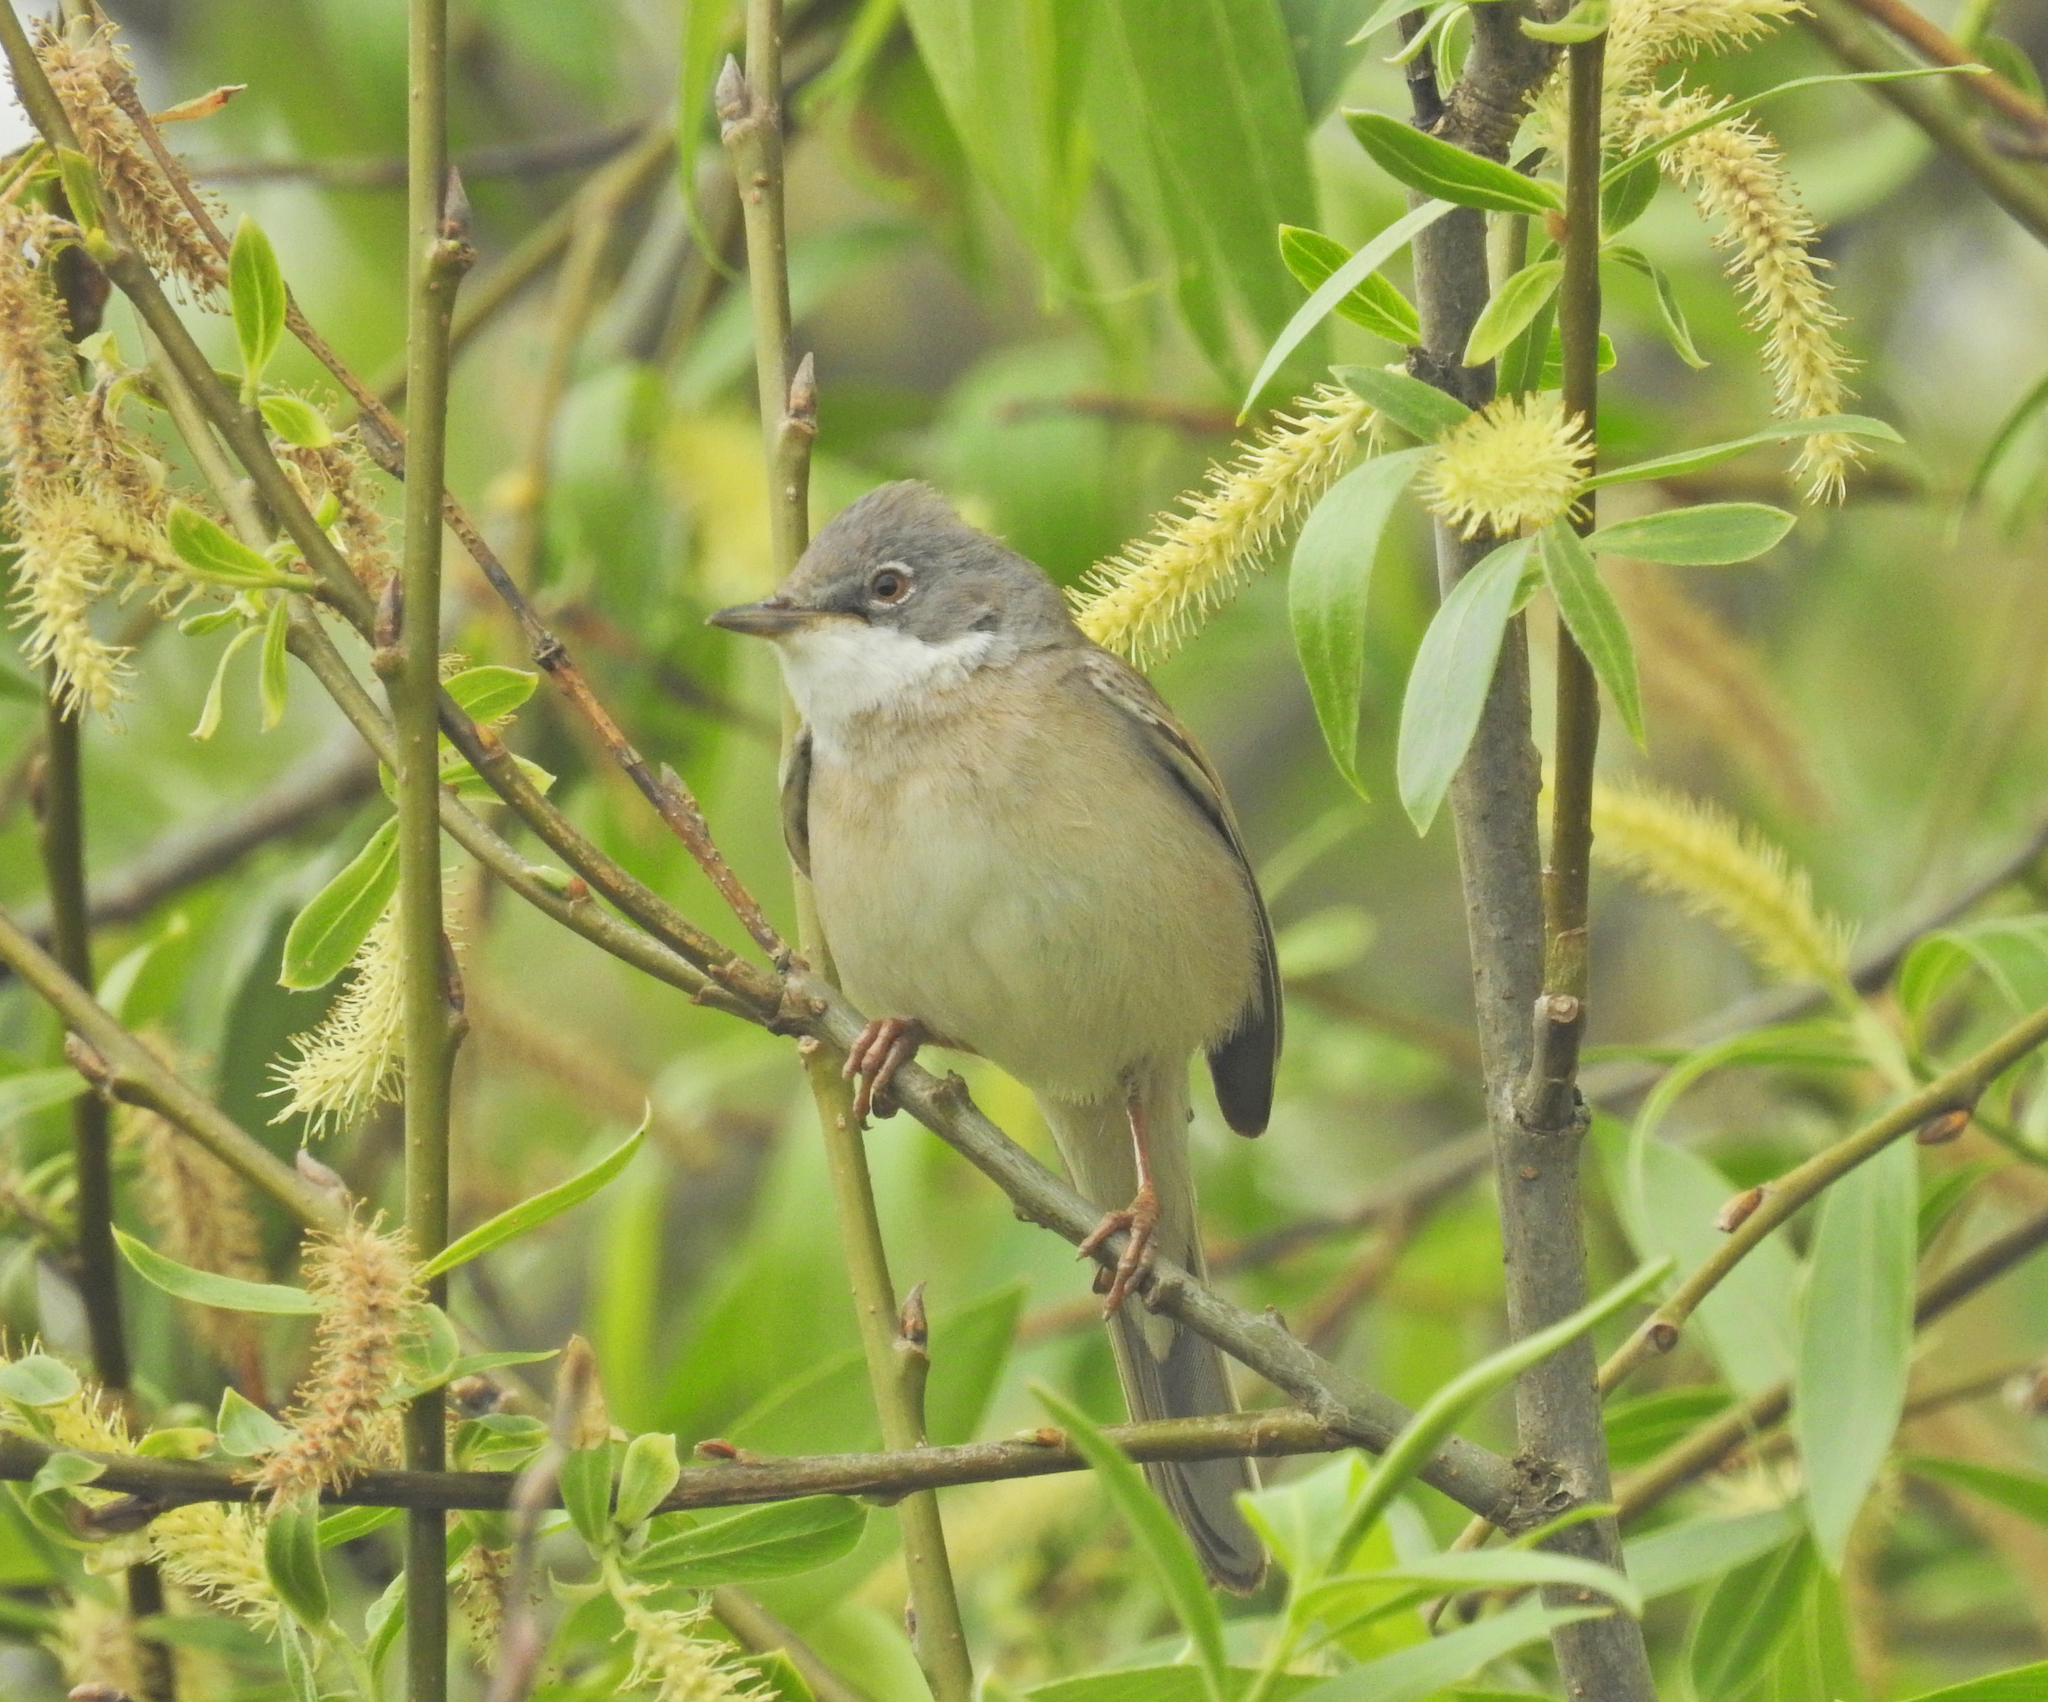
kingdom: Animalia
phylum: Chordata
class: Aves
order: Passeriformes
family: Sylviidae
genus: Sylvia
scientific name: Sylvia communis
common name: Common whitethroat
